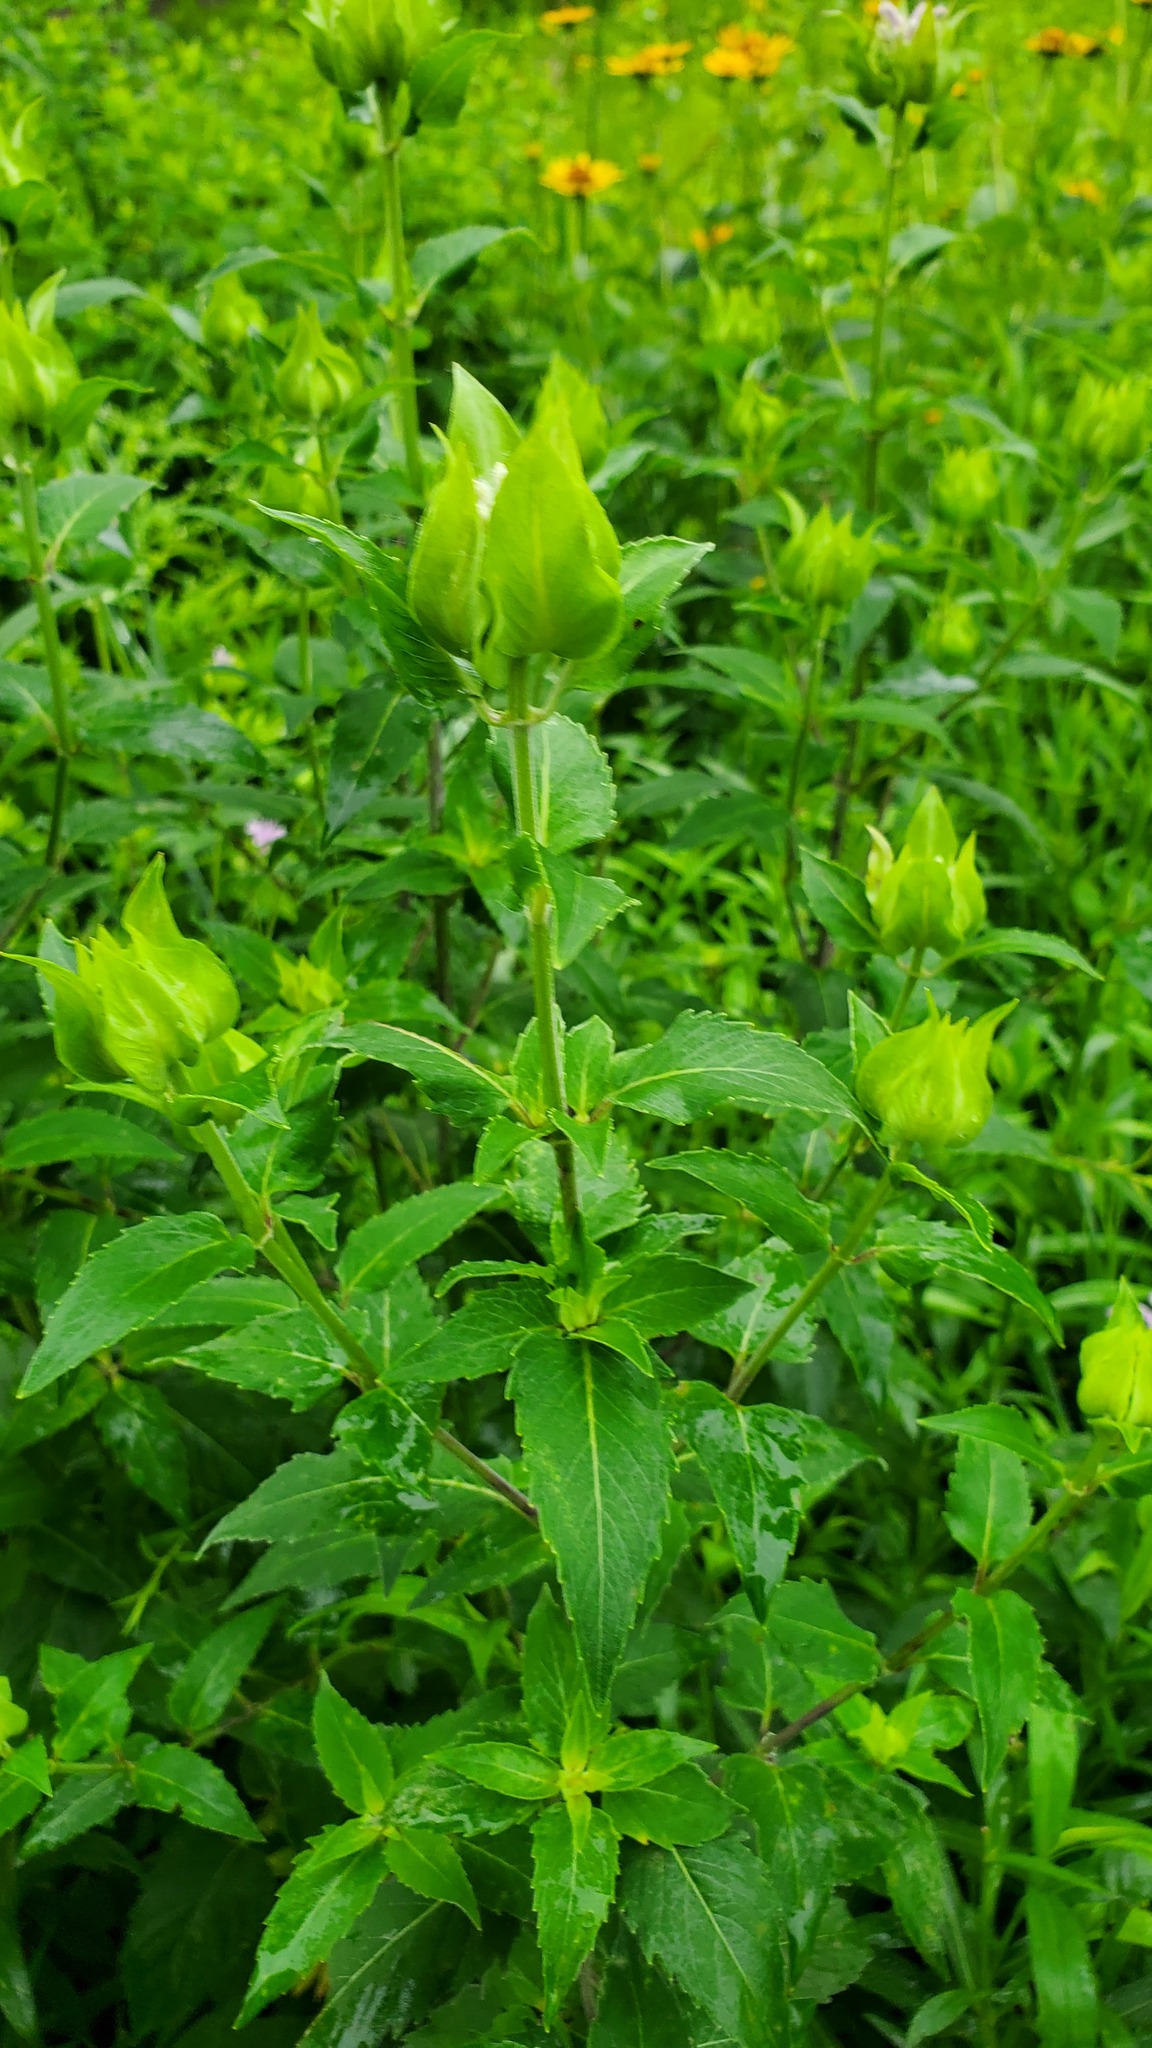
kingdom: Plantae
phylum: Tracheophyta
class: Magnoliopsida
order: Lamiales
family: Lamiaceae
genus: Monarda
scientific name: Monarda fistulosa
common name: Purple beebalm
